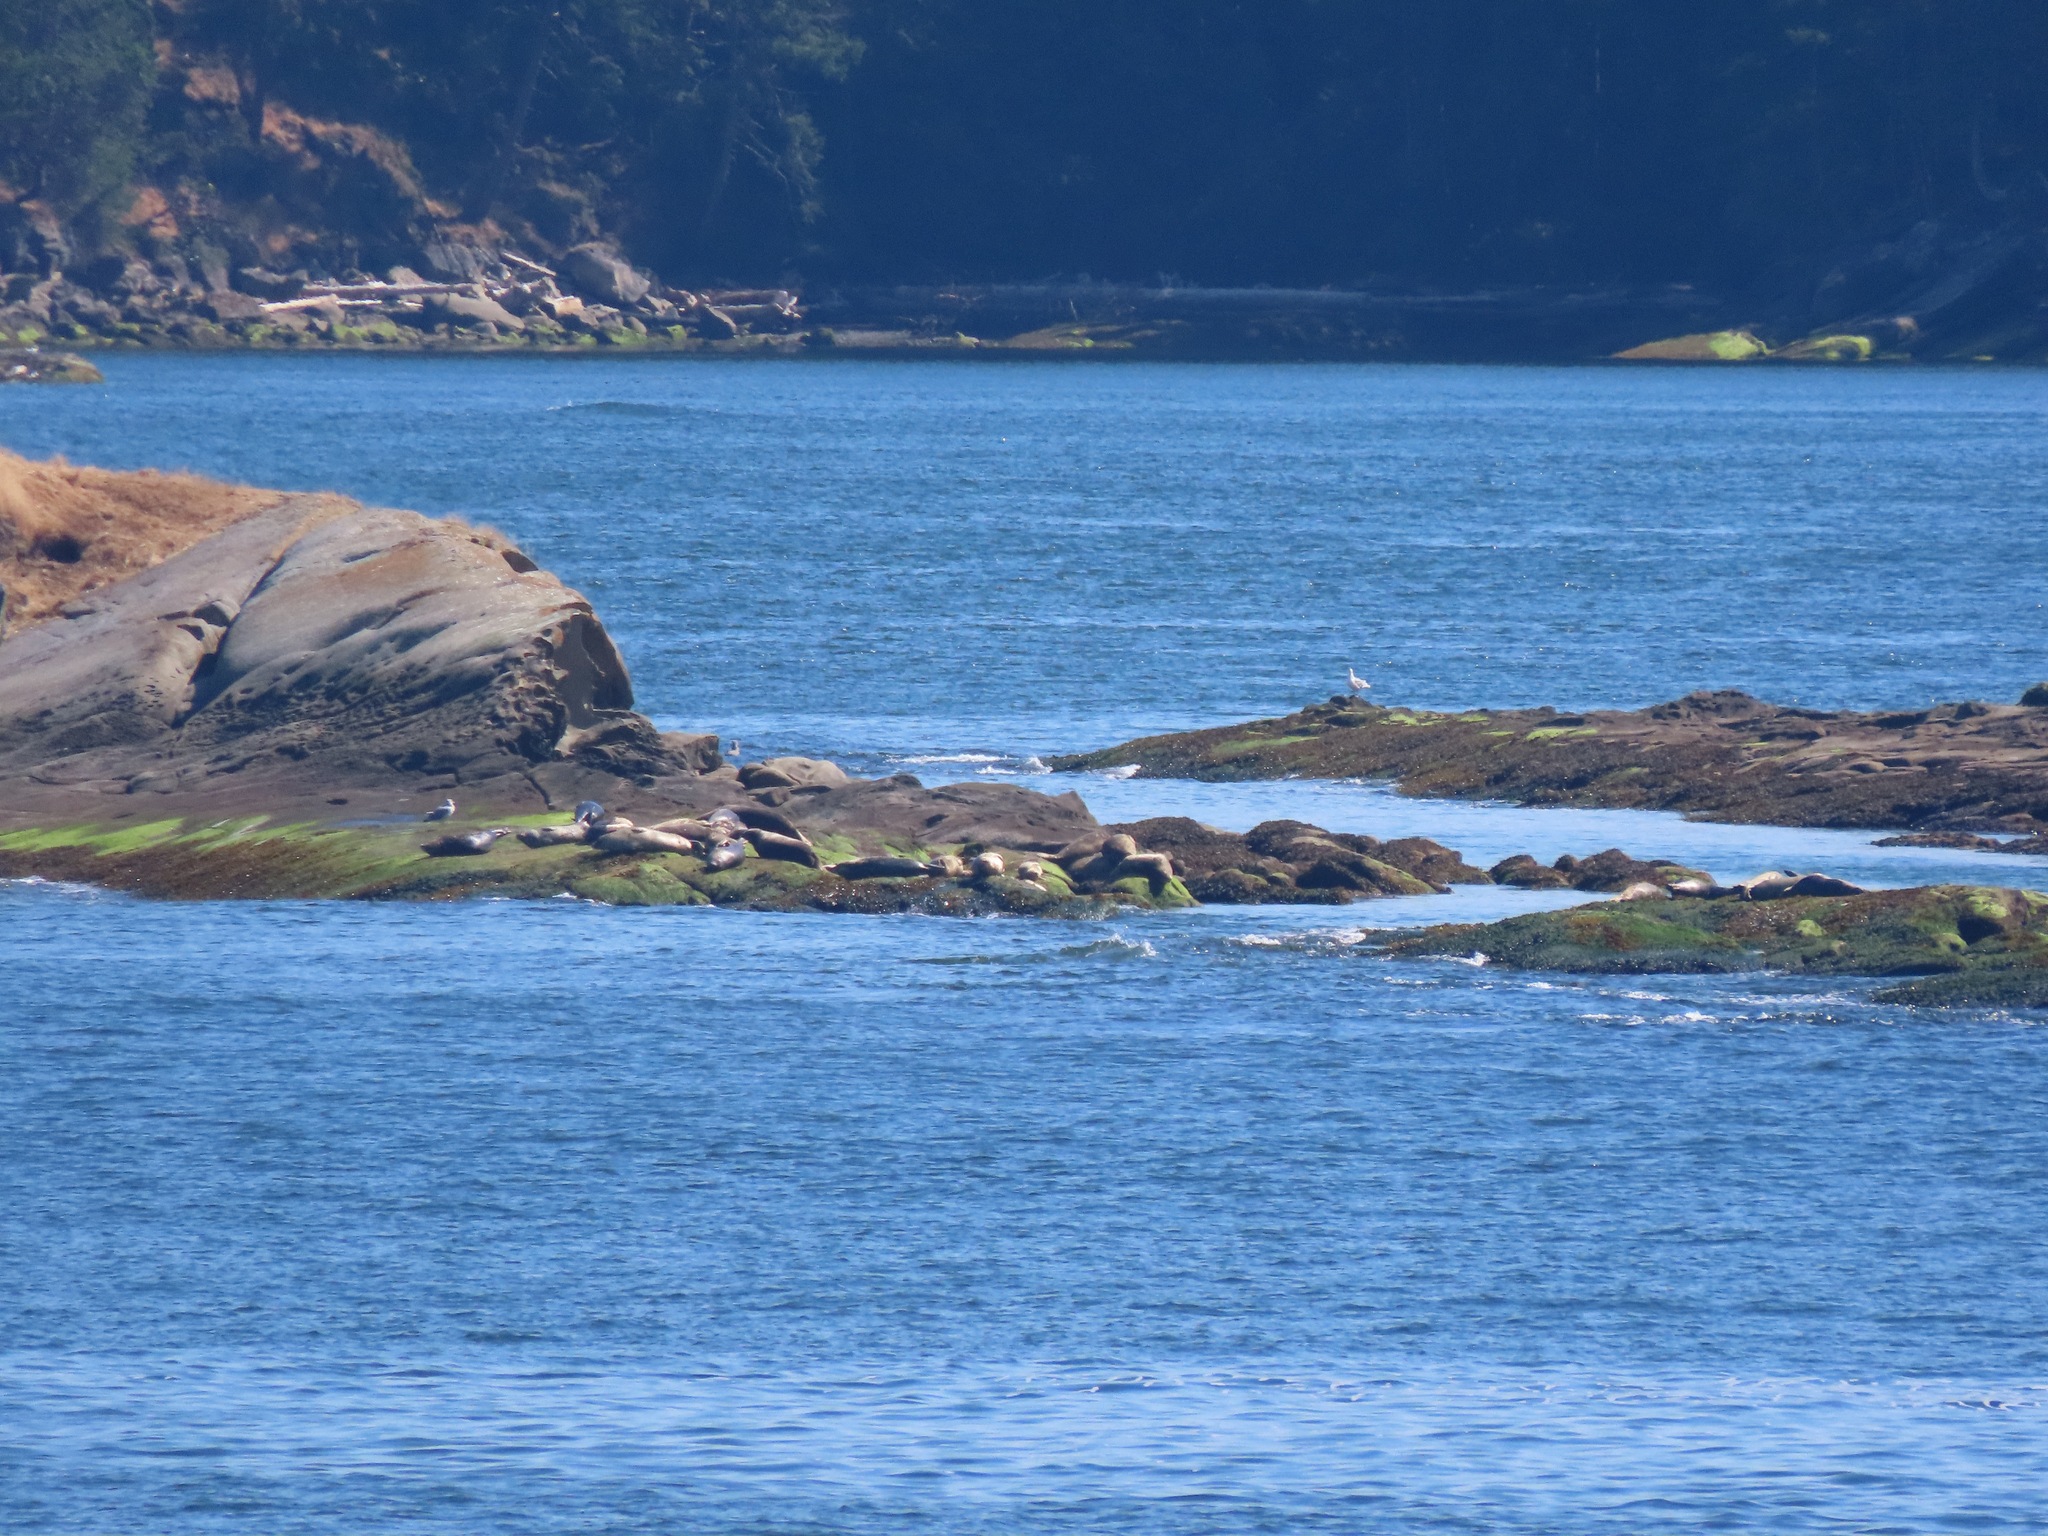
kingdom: Animalia
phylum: Chordata
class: Mammalia
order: Carnivora
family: Phocidae
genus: Phoca
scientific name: Phoca vitulina
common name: Harbor seal
